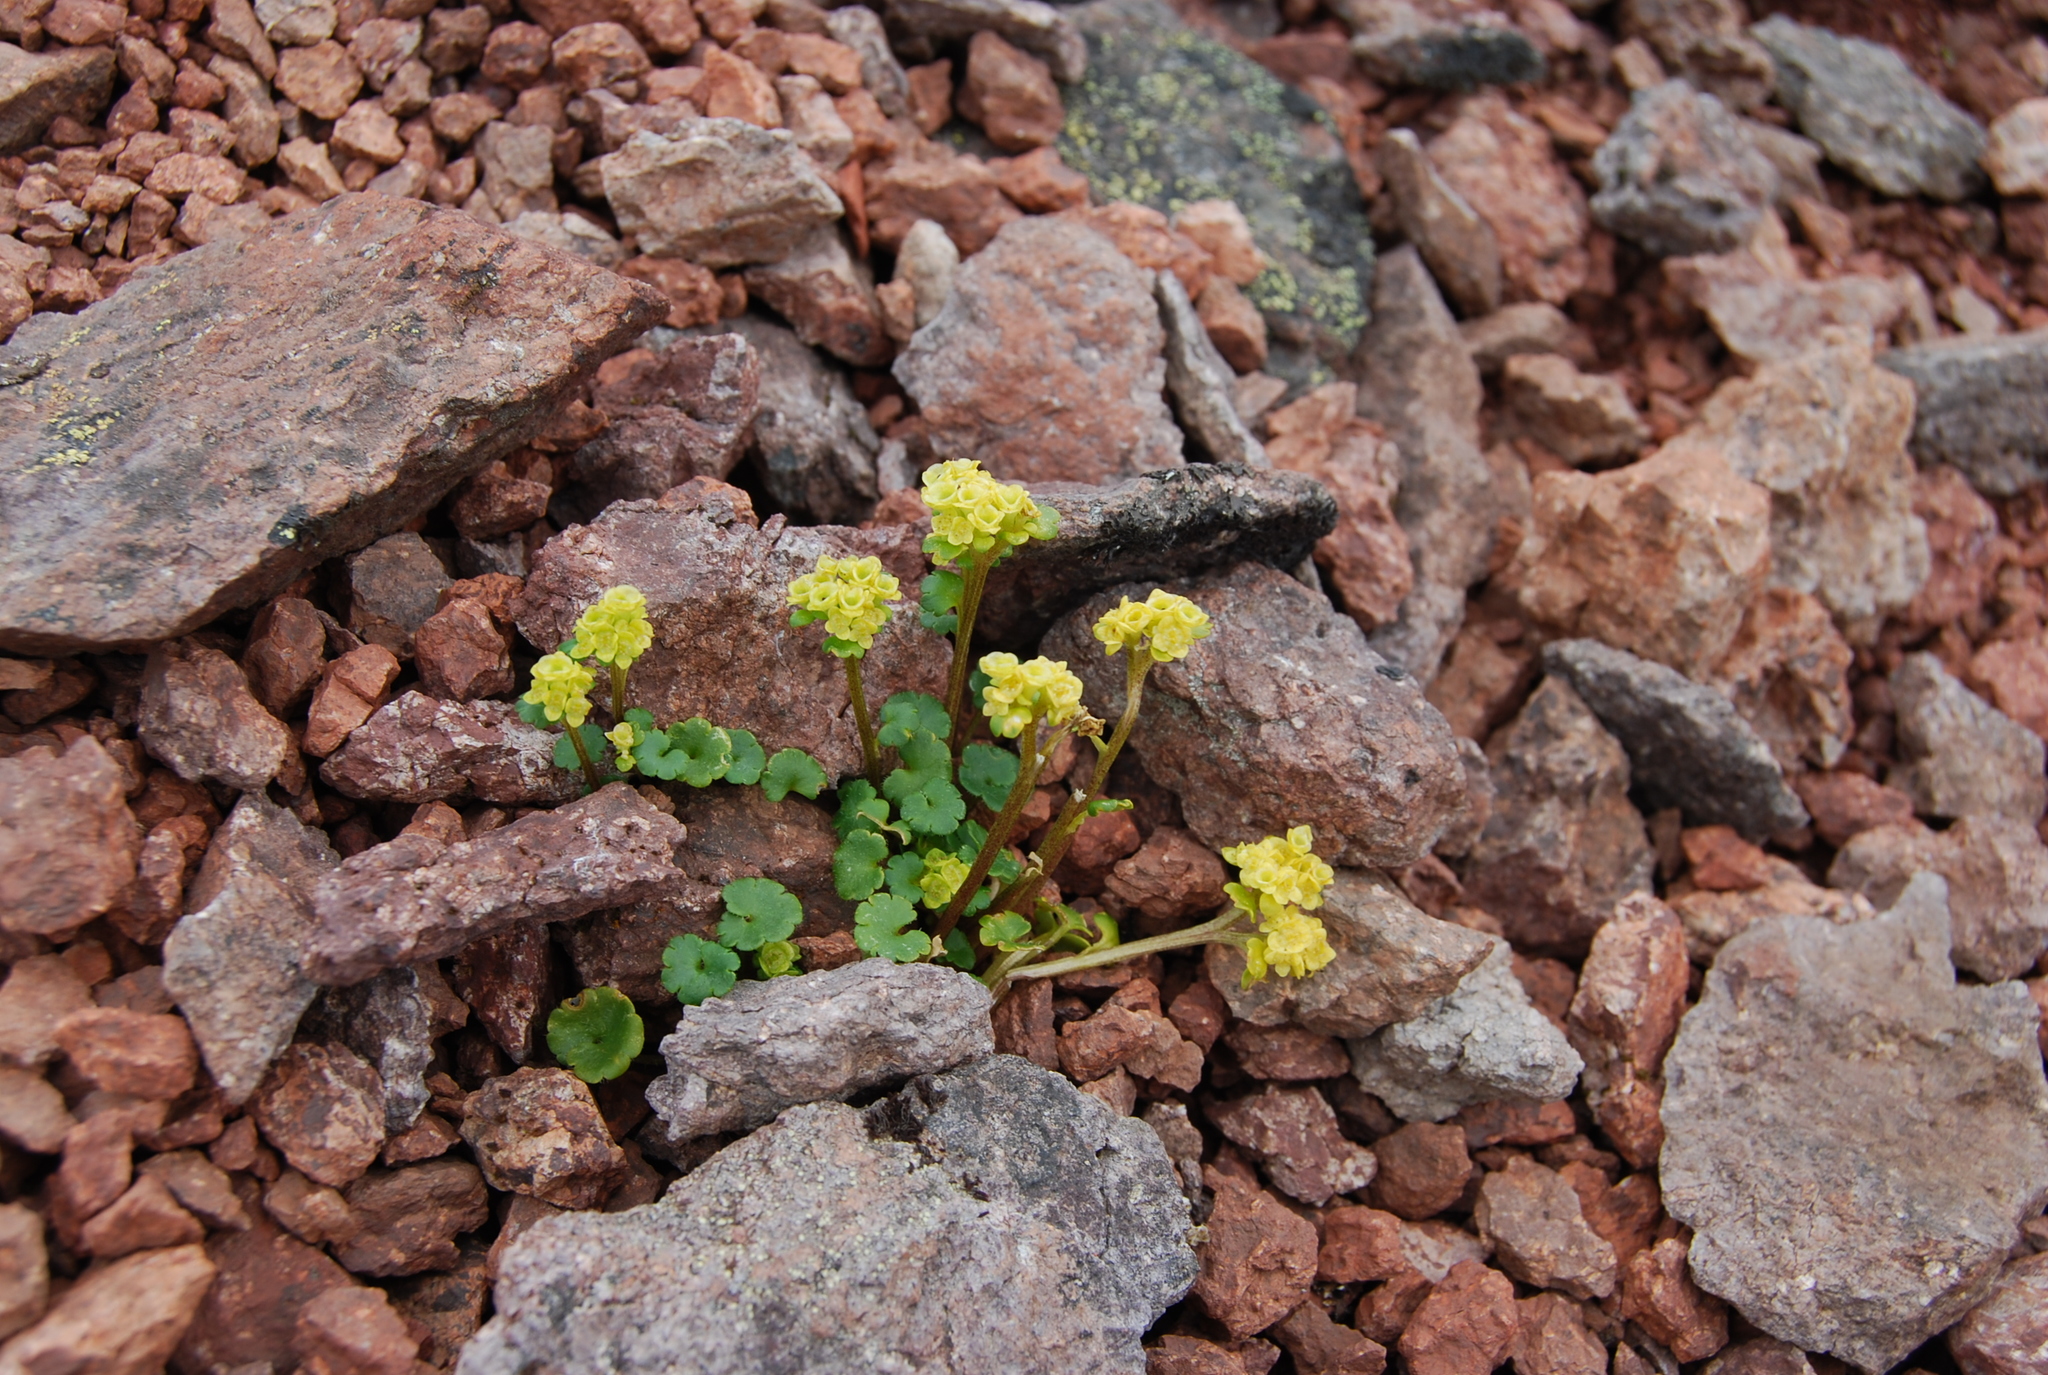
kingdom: Plantae
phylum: Tracheophyta
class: Magnoliopsida
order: Saxifragales
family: Saxifragaceae
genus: Chrysosplenium
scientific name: Chrysosplenium wrightii
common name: Wright's golden carpet
